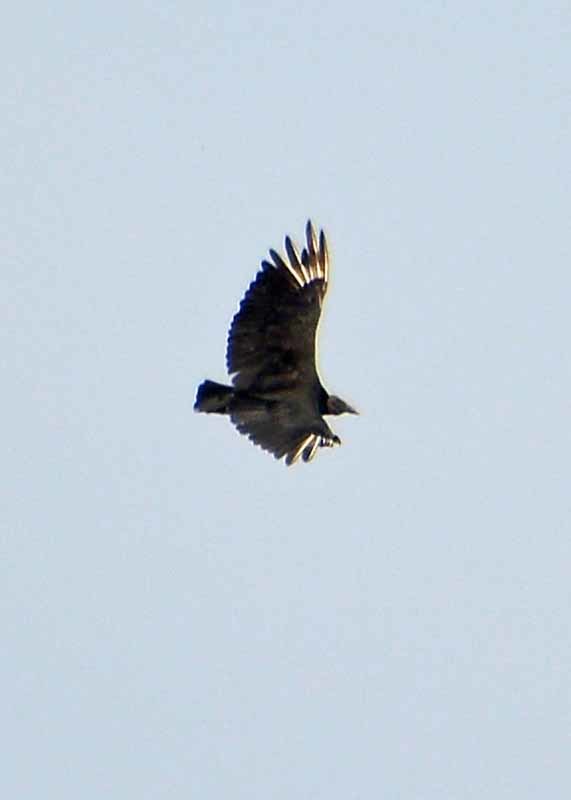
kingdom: Animalia
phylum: Chordata
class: Aves
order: Accipitriformes
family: Cathartidae
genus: Coragyps
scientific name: Coragyps atratus
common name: Black vulture
